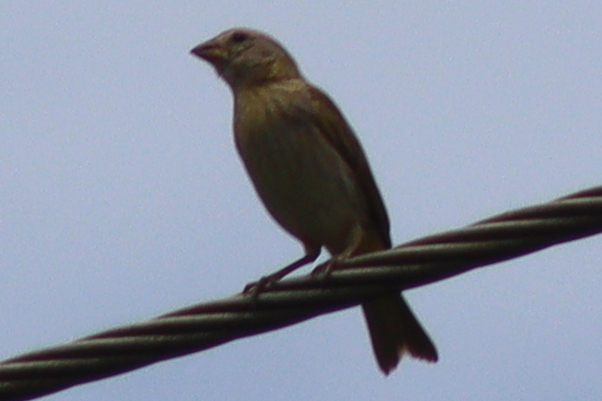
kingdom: Animalia
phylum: Chordata
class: Aves
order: Passeriformes
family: Thraupidae
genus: Sicalis
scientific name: Sicalis flaveola
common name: Saffron finch
